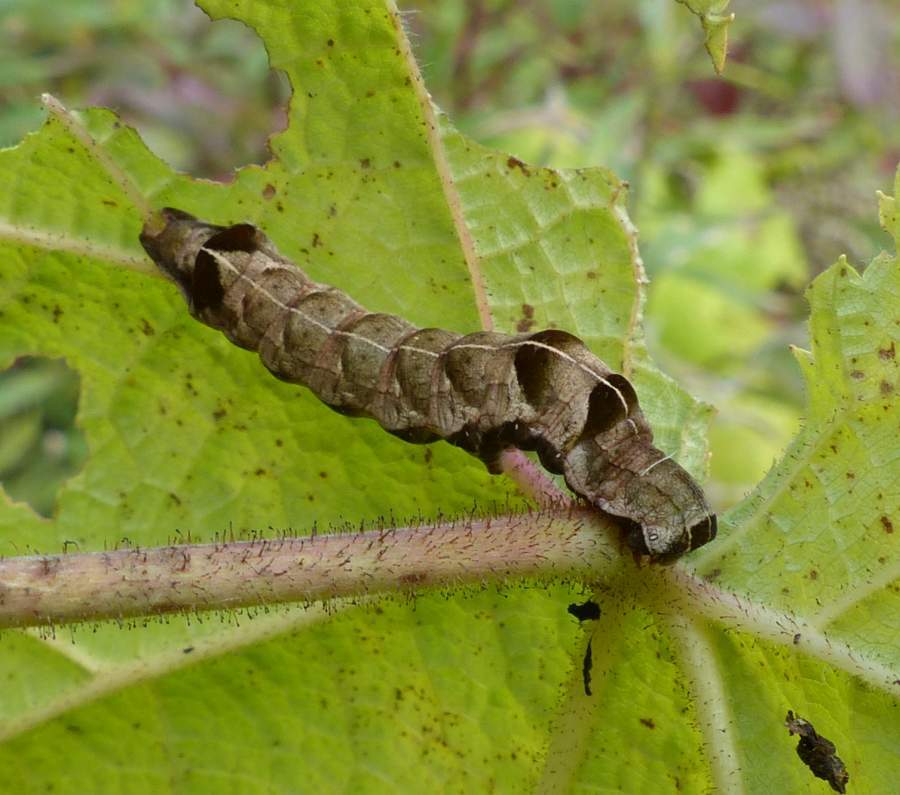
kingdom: Animalia
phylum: Arthropoda
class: Insecta
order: Lepidoptera
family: Noctuidae
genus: Melanchra
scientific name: Melanchra adjuncta
